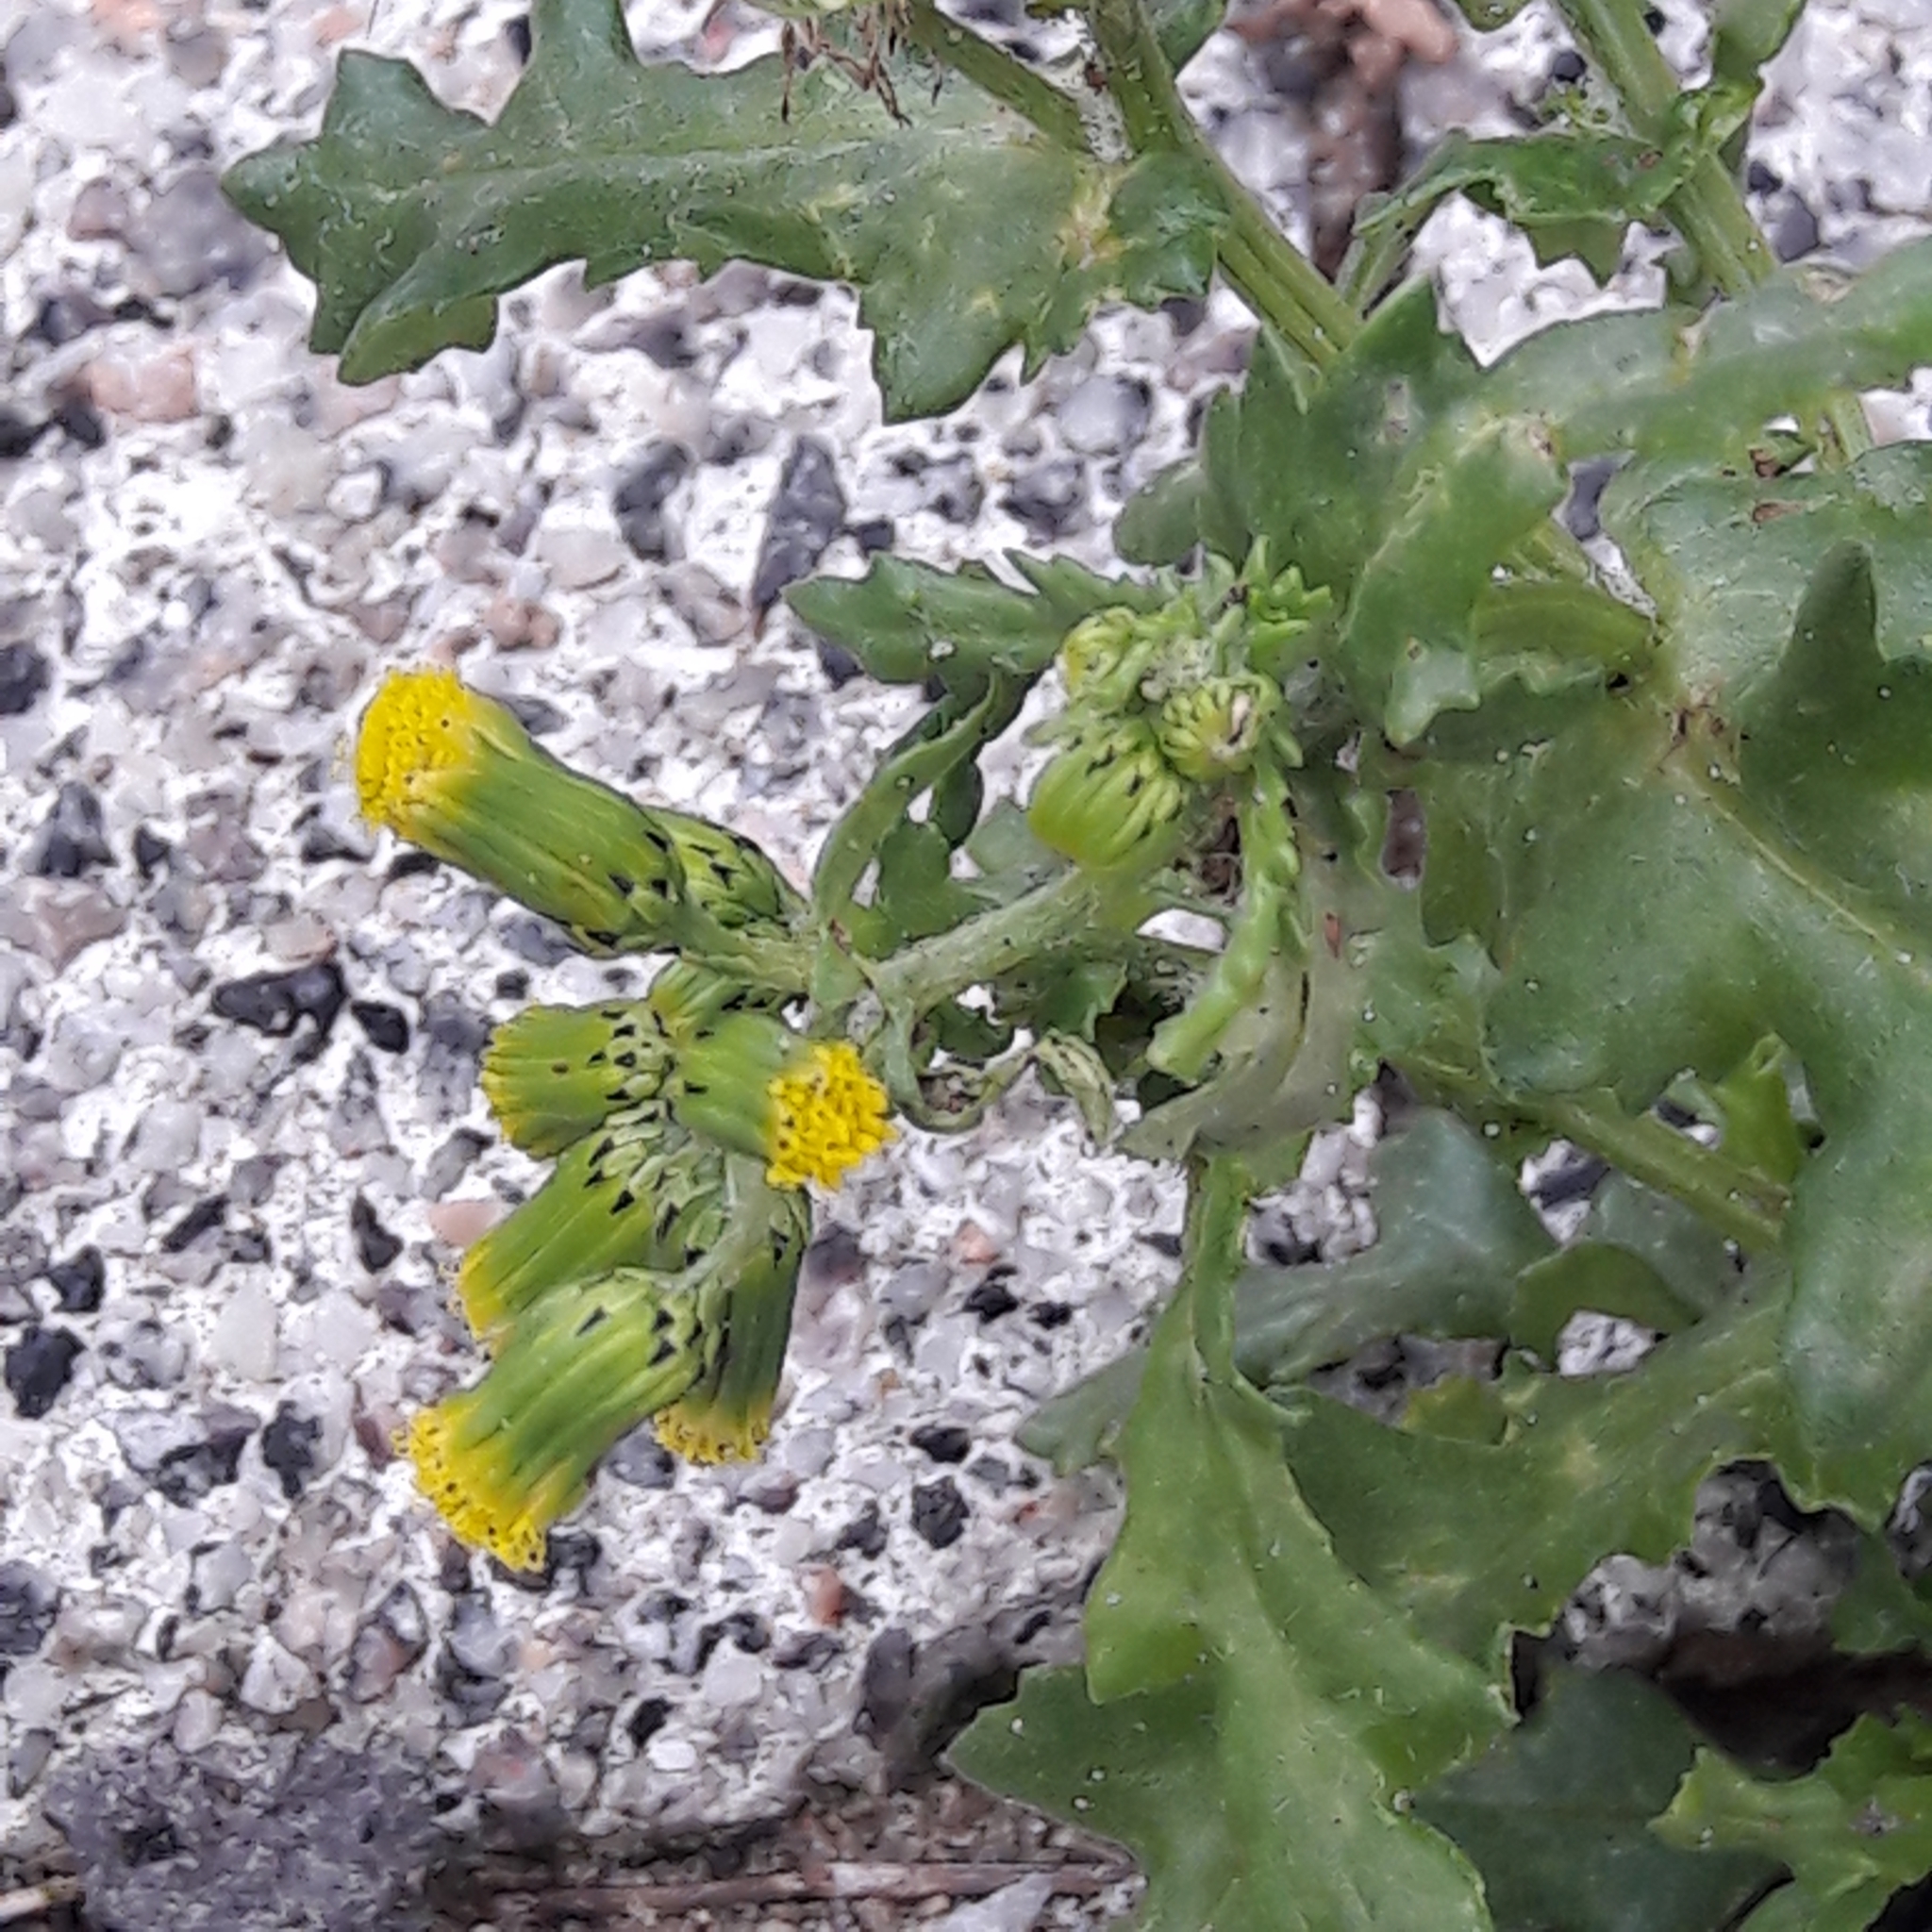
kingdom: Plantae
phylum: Tracheophyta
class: Magnoliopsida
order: Asterales
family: Asteraceae
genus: Senecio
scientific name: Senecio vulgaris
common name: Old-man-in-the-spring
